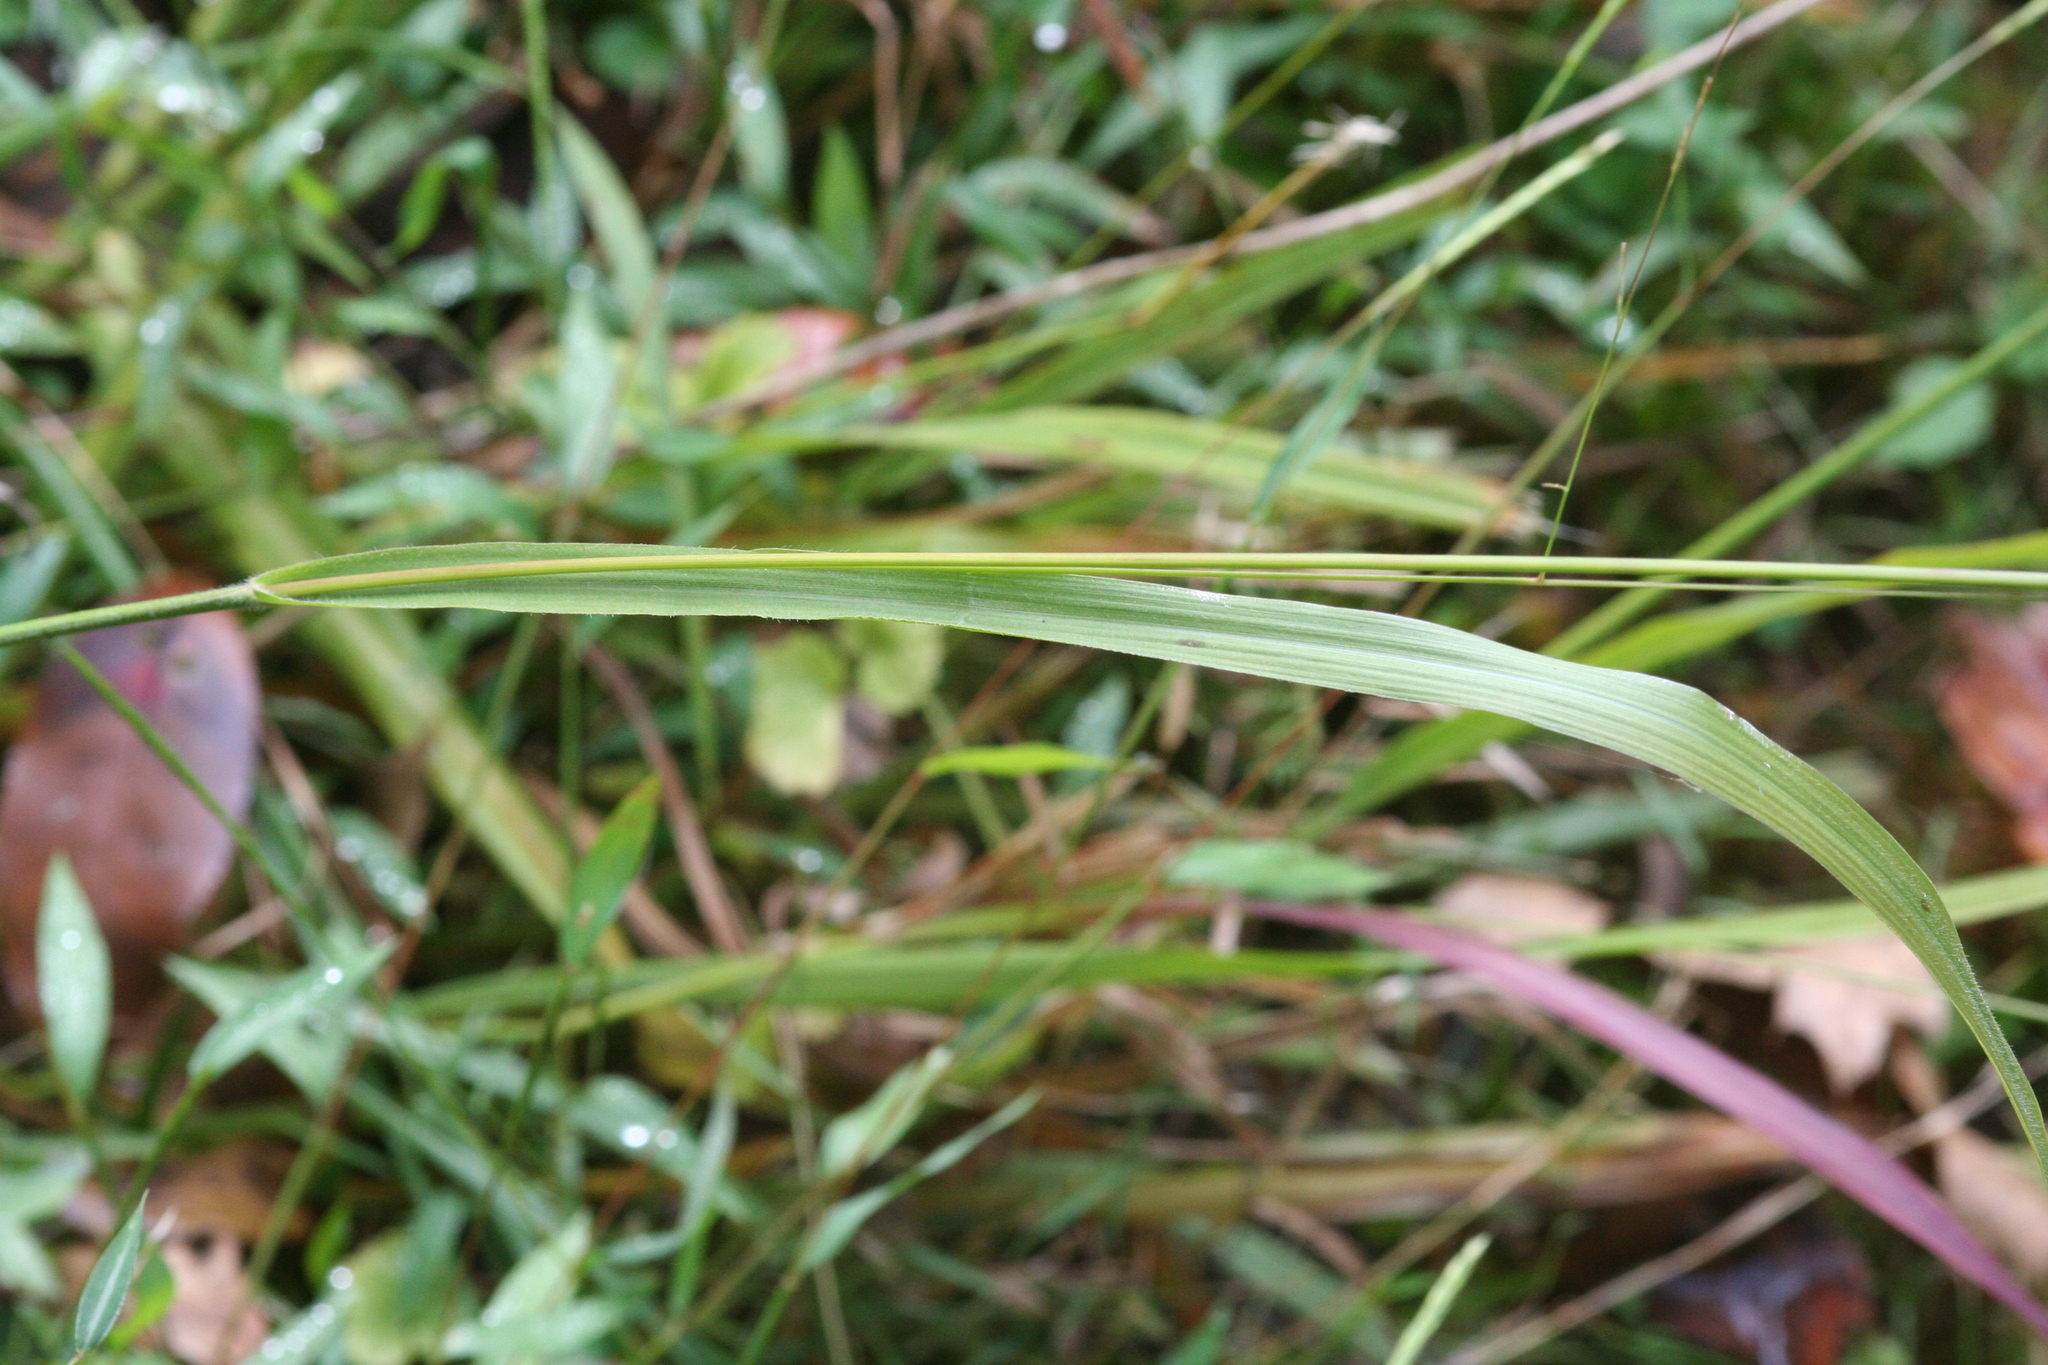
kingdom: Plantae
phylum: Tracheophyta
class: Liliopsida
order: Poales
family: Poaceae
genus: Coleataenia
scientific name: Coleataenia anceps
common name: Beaked panic grass
